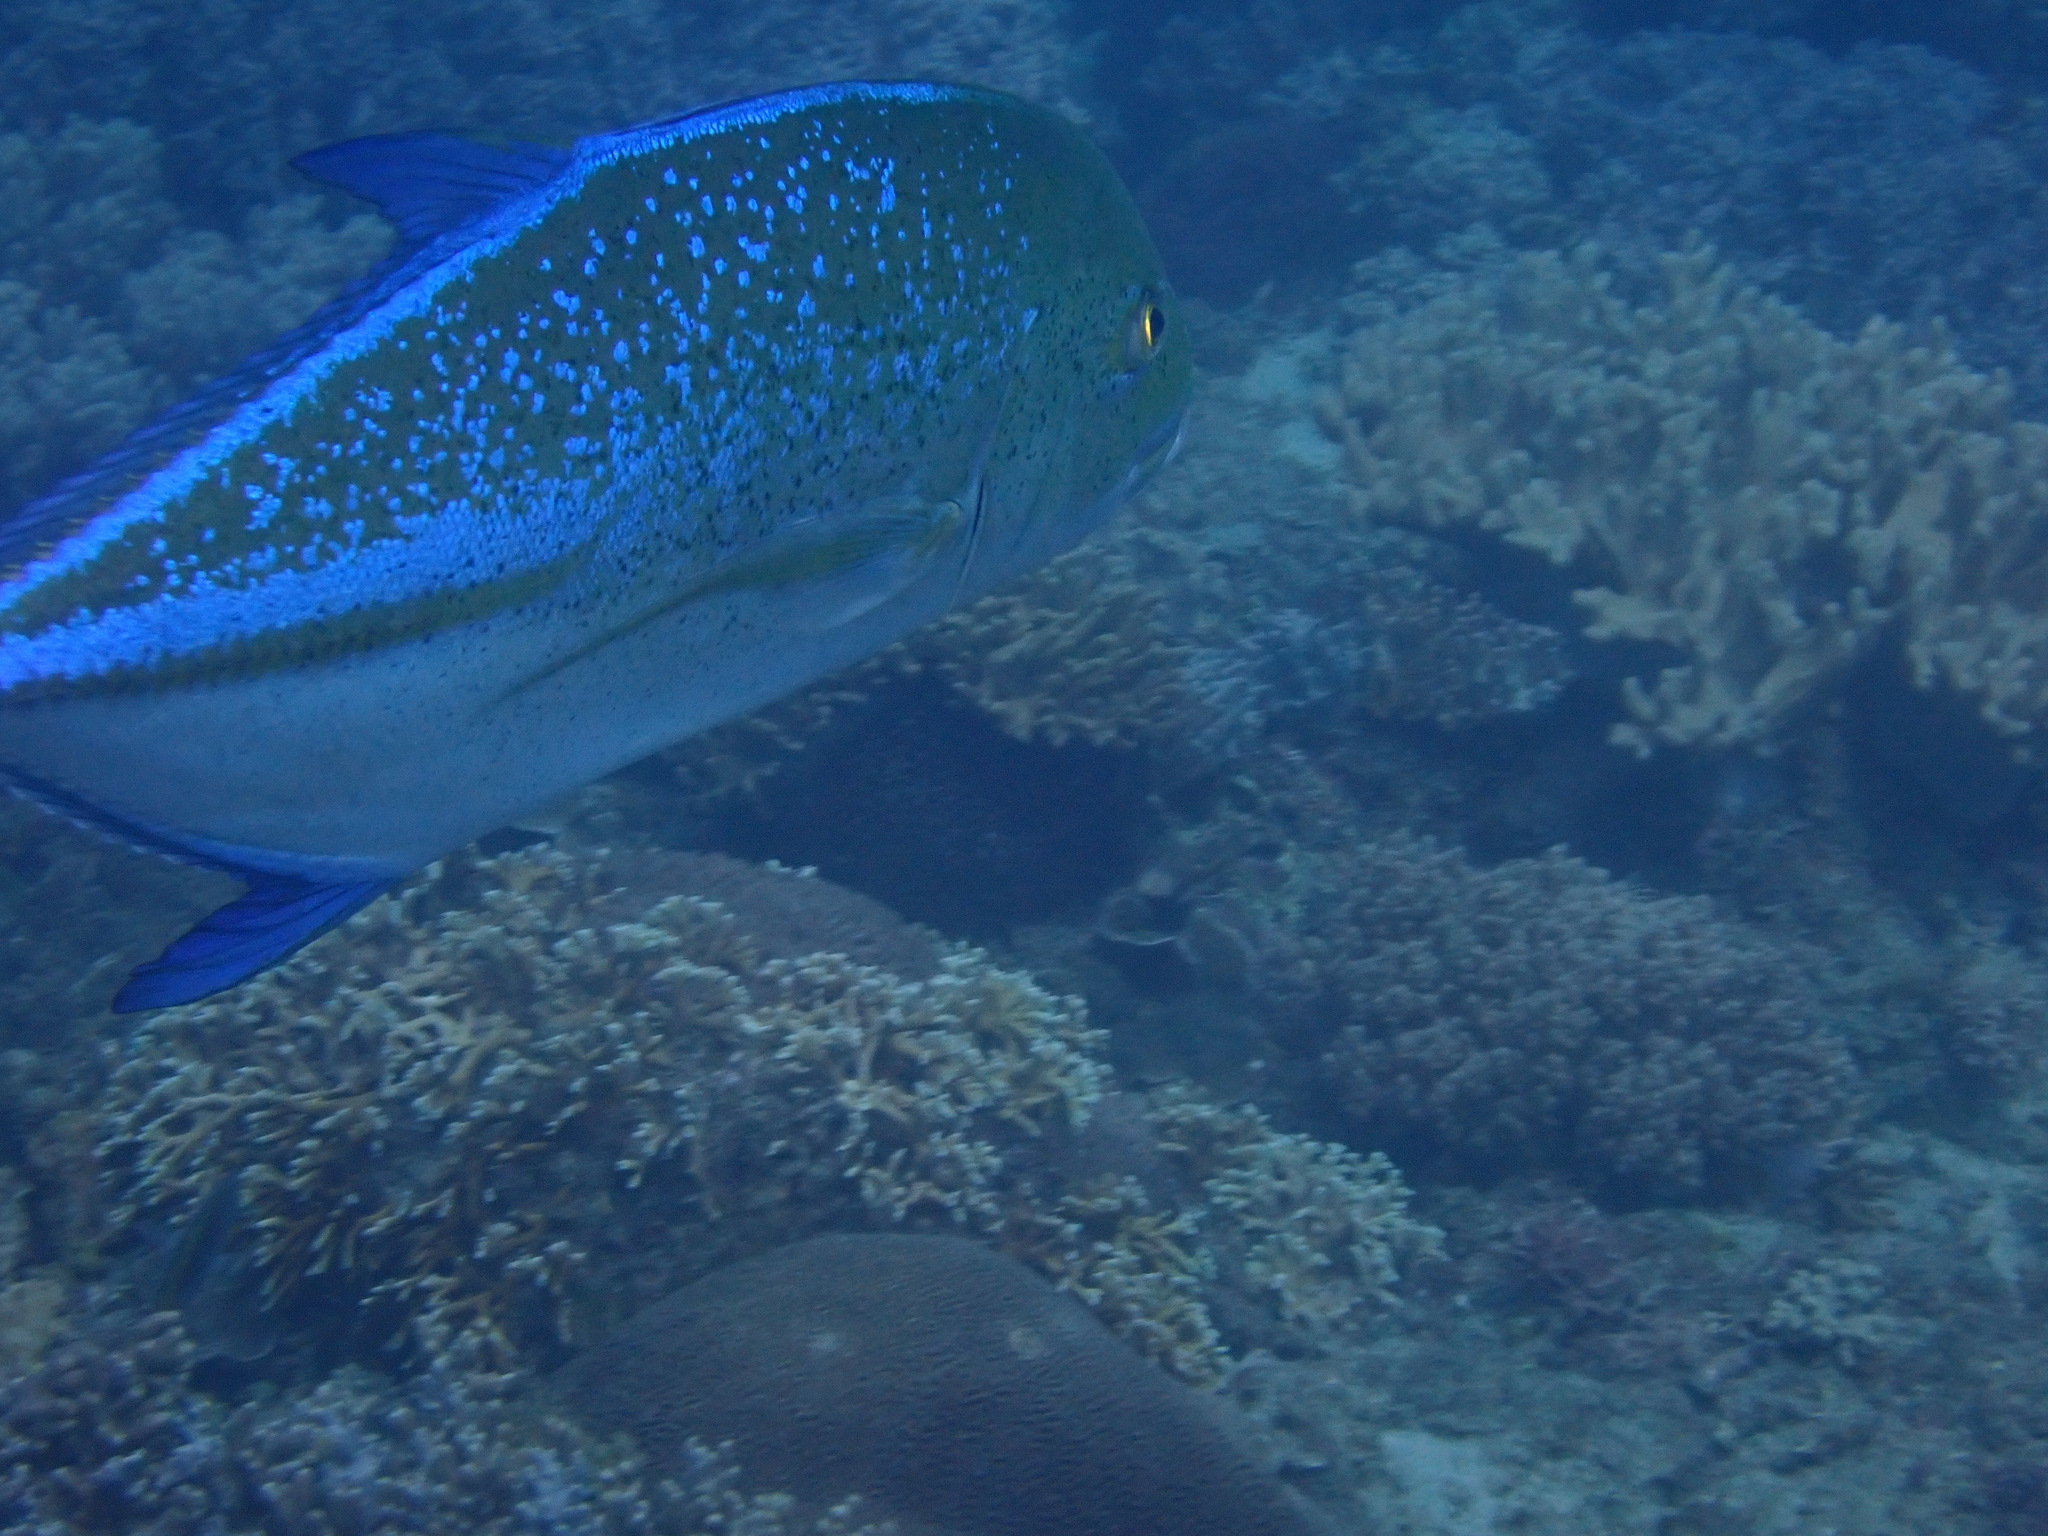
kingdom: Animalia
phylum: Chordata
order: Perciformes
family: Carangidae
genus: Caranx
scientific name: Caranx melampygus
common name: Bluefin trevally
